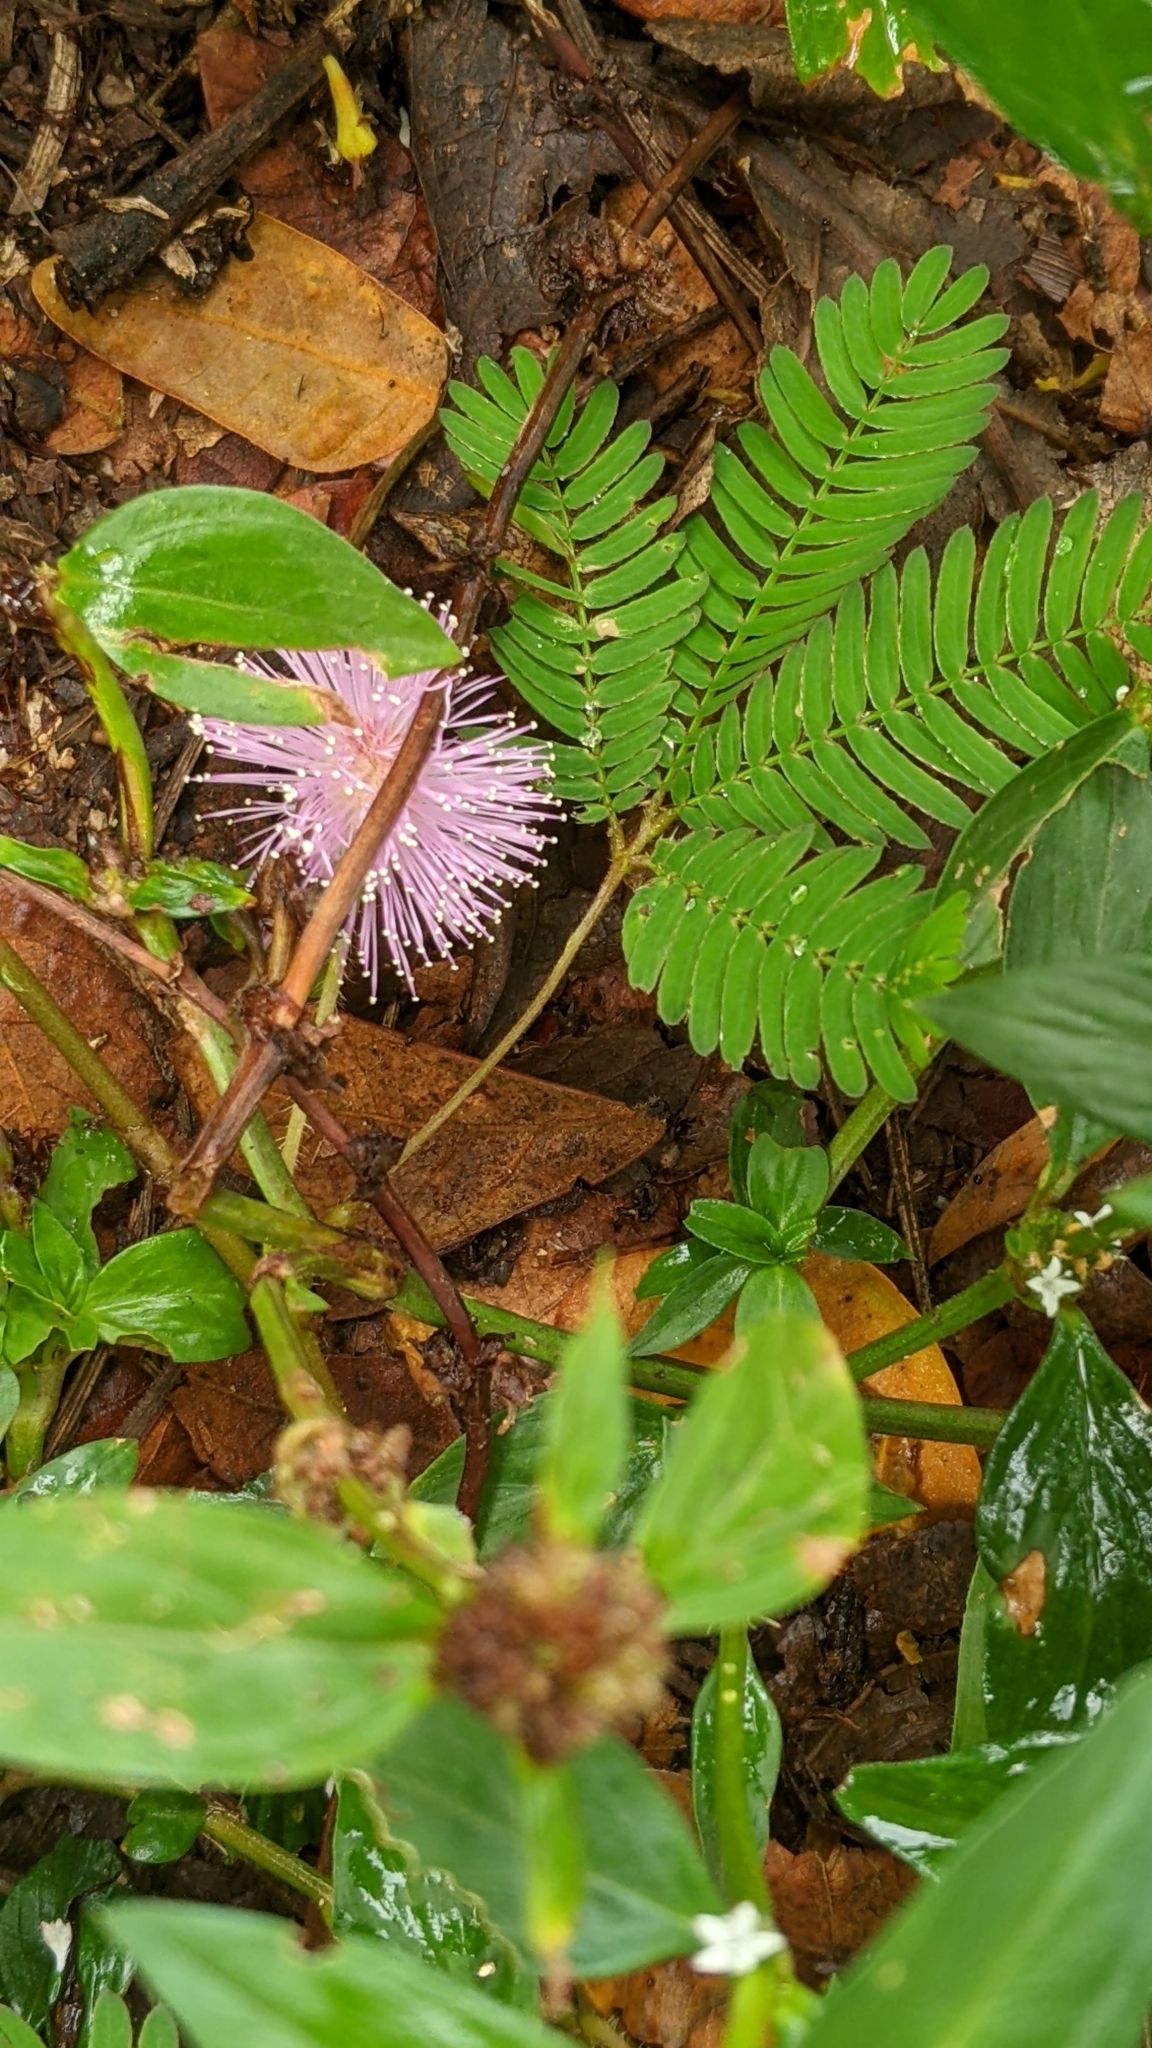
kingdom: Plantae
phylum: Tracheophyta
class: Magnoliopsida
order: Fabales
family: Fabaceae
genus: Mimosa
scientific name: Mimosa pudica
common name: Sensitive plant
